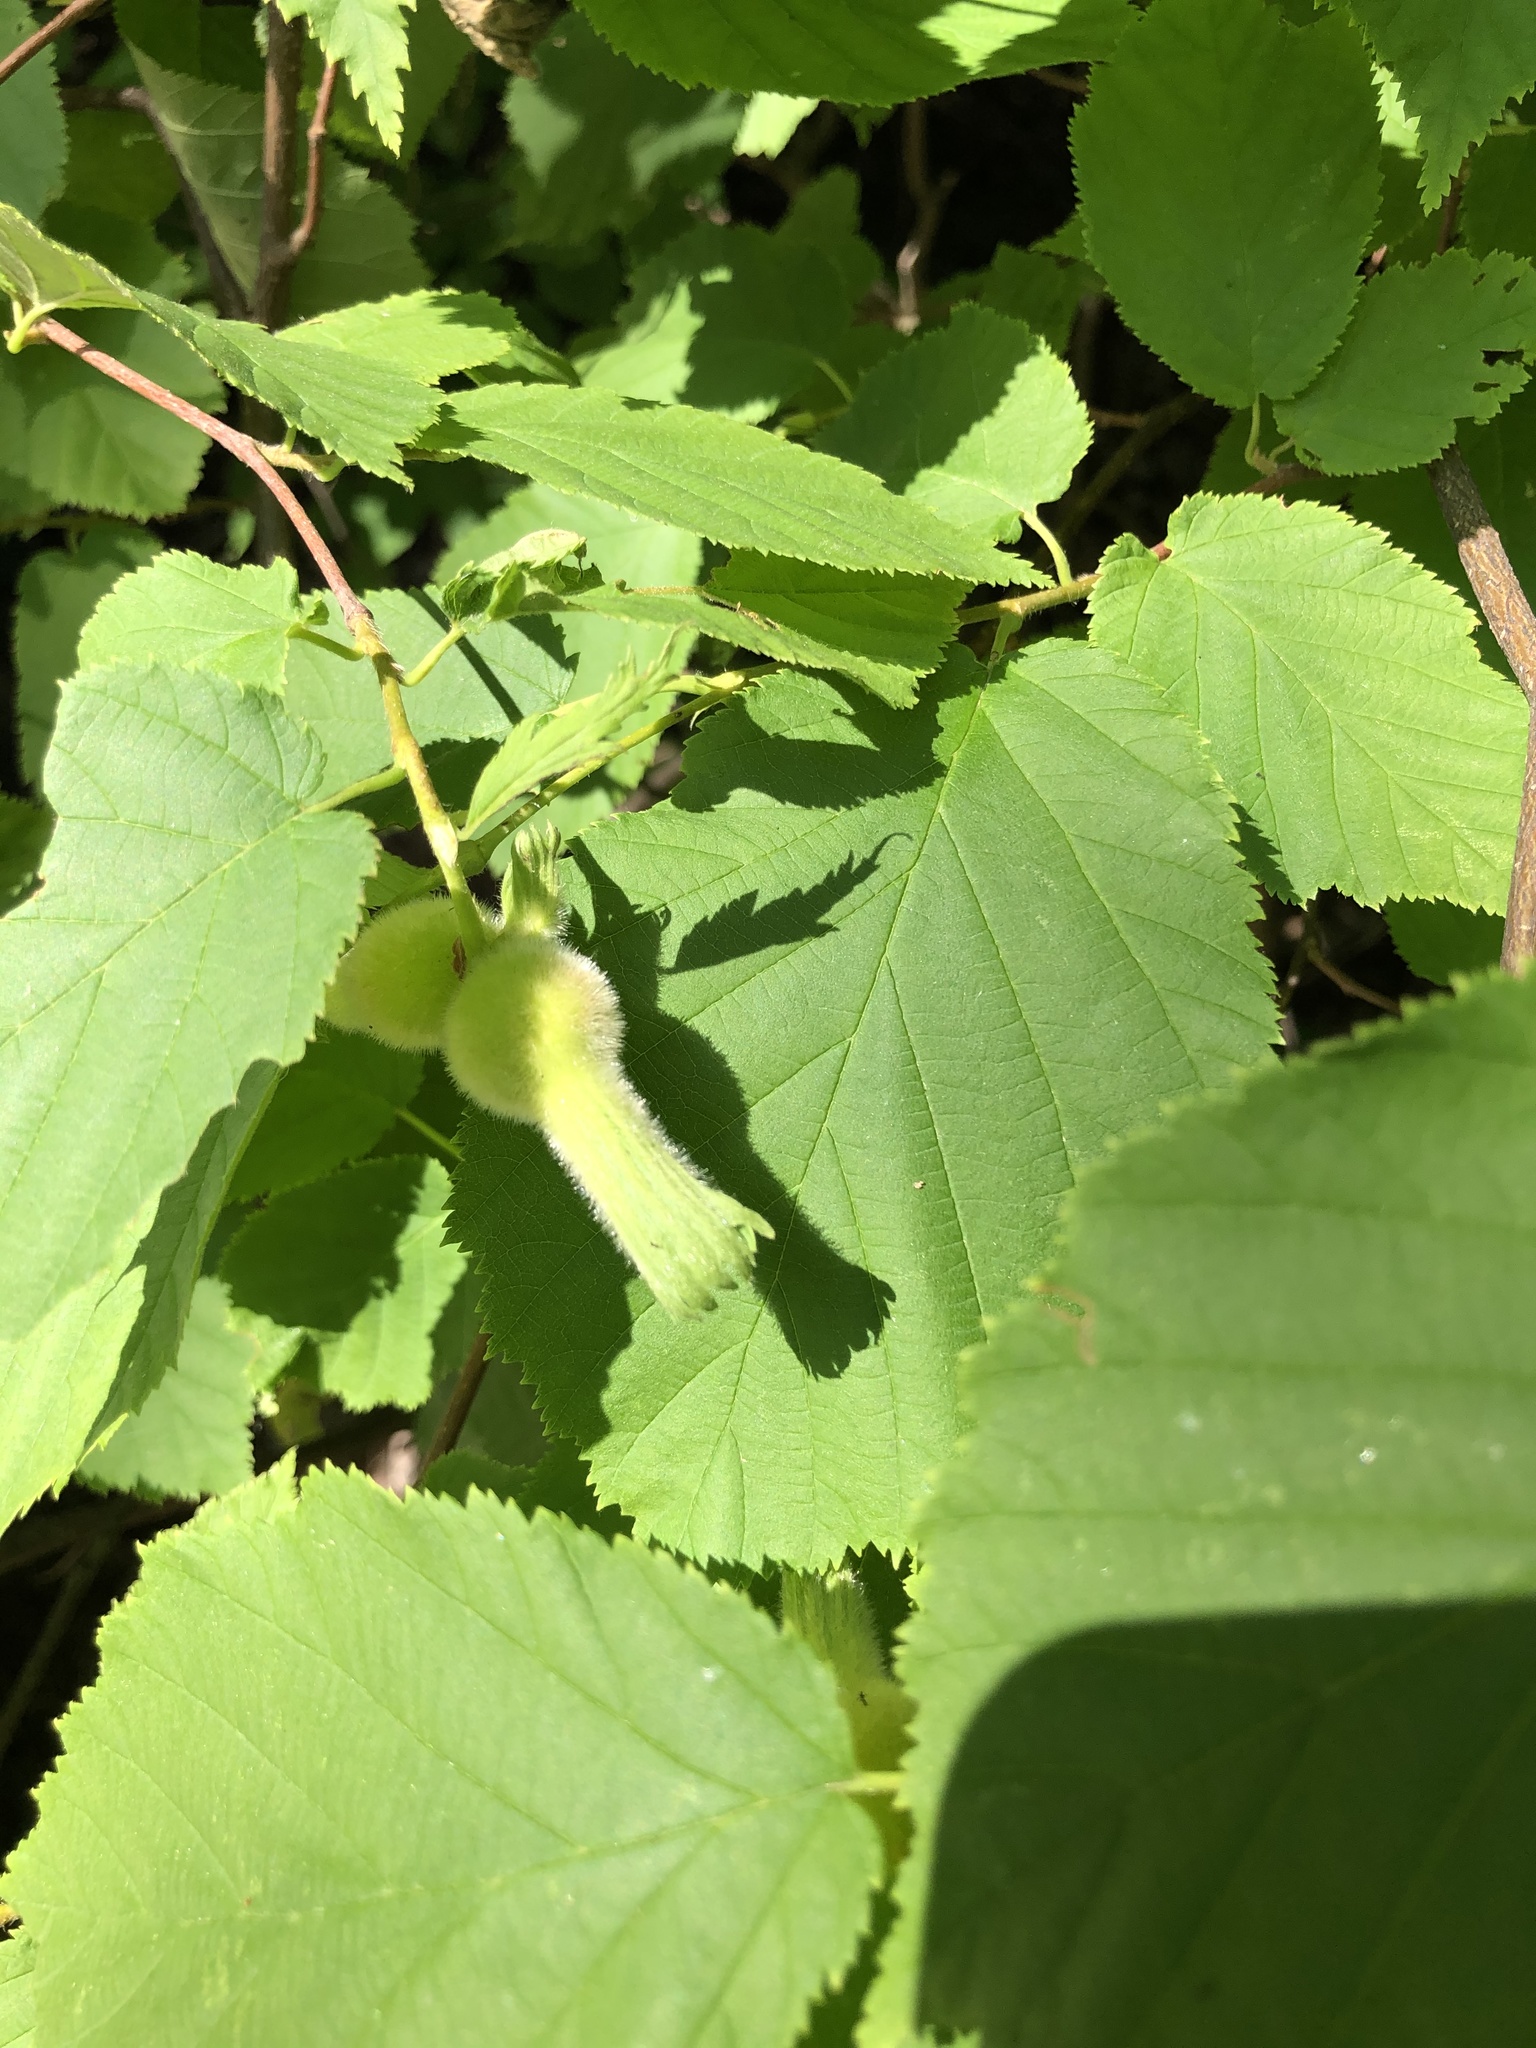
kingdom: Plantae
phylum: Tracheophyta
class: Magnoliopsida
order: Fagales
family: Betulaceae
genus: Corylus
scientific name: Corylus cornuta
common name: Beaked hazel
